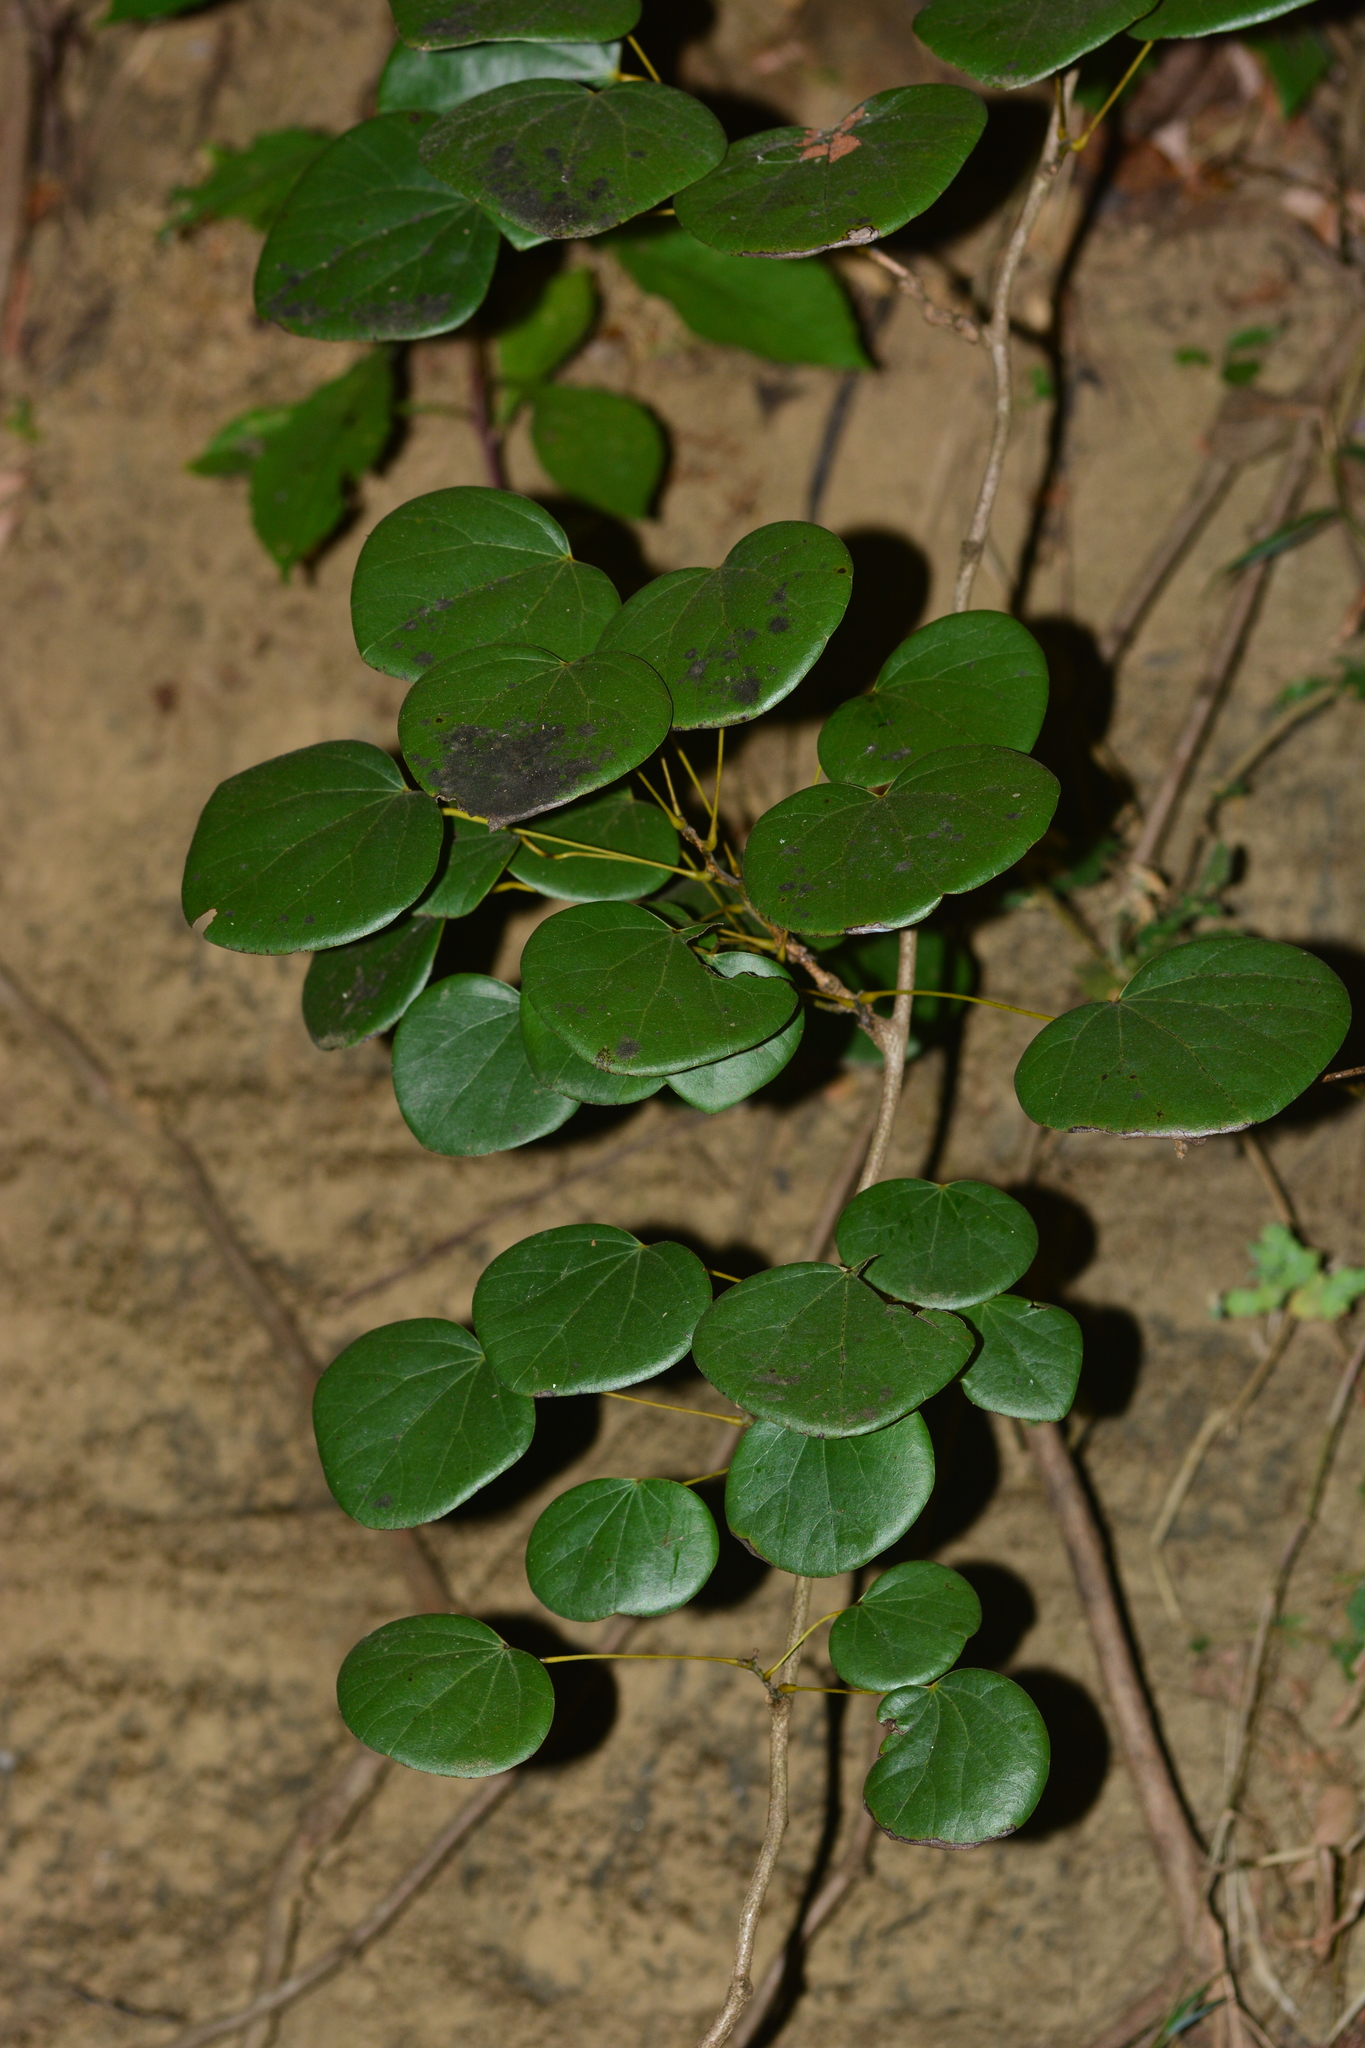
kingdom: Plantae
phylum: Tracheophyta
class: Magnoliopsida
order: Ranunculales
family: Menispermaceae
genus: Diploclisia
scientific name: Diploclisia glaucescens
